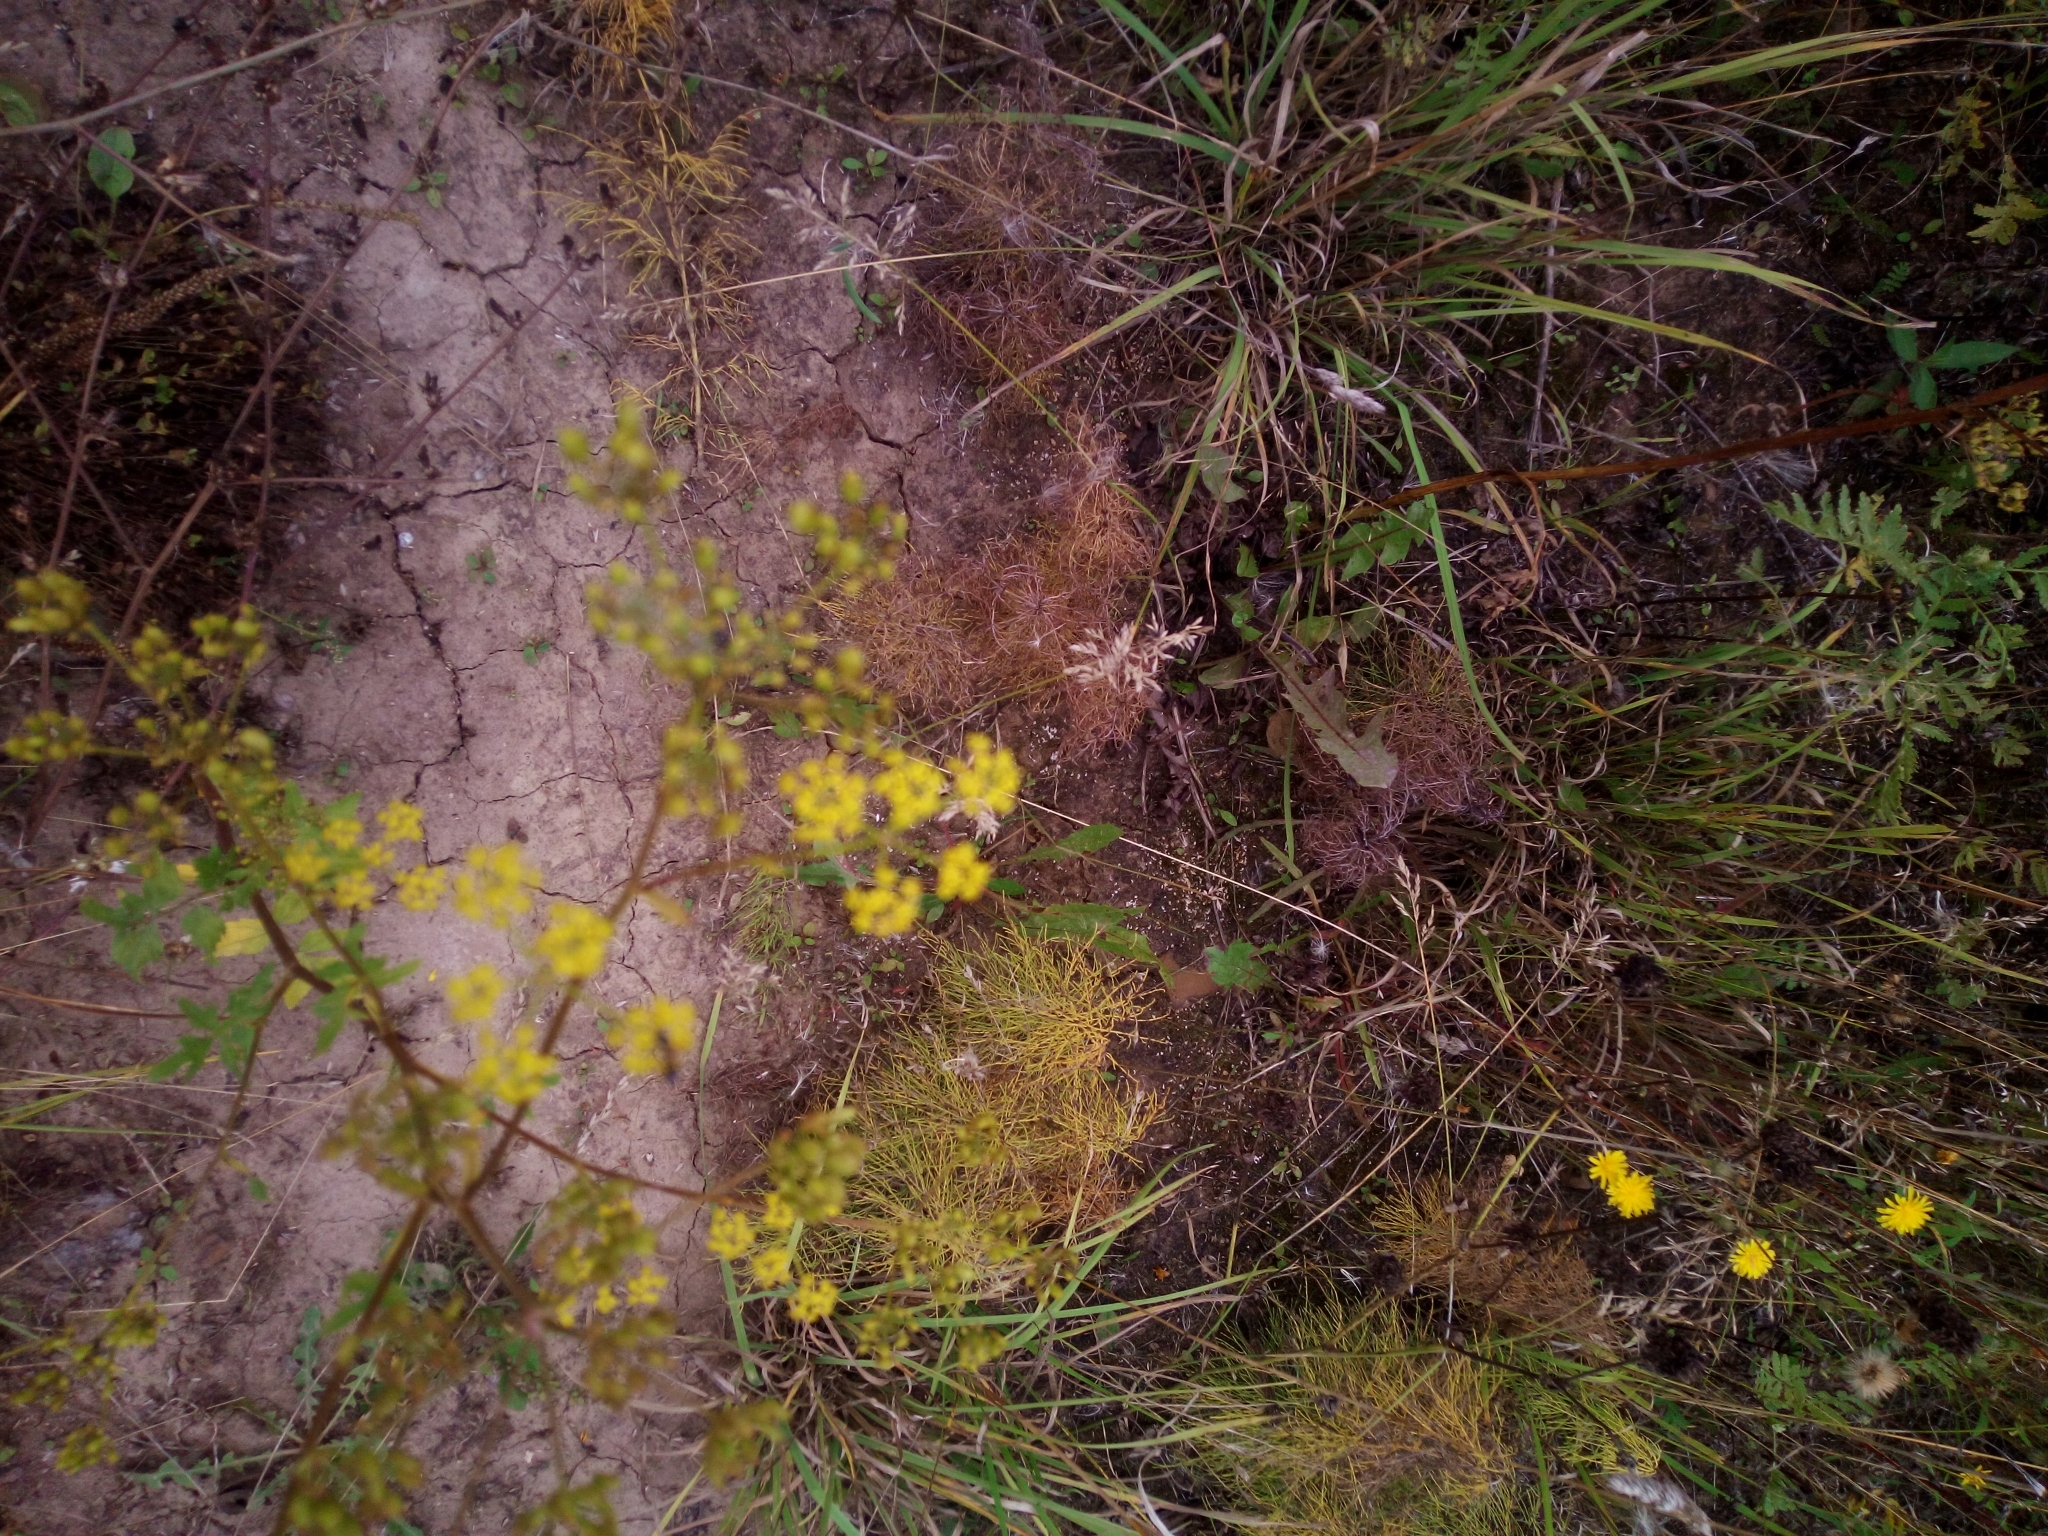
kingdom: Plantae
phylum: Tracheophyta
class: Magnoliopsida
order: Apiales
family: Apiaceae
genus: Pastinaca
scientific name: Pastinaca sativa
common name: Wild parsnip
